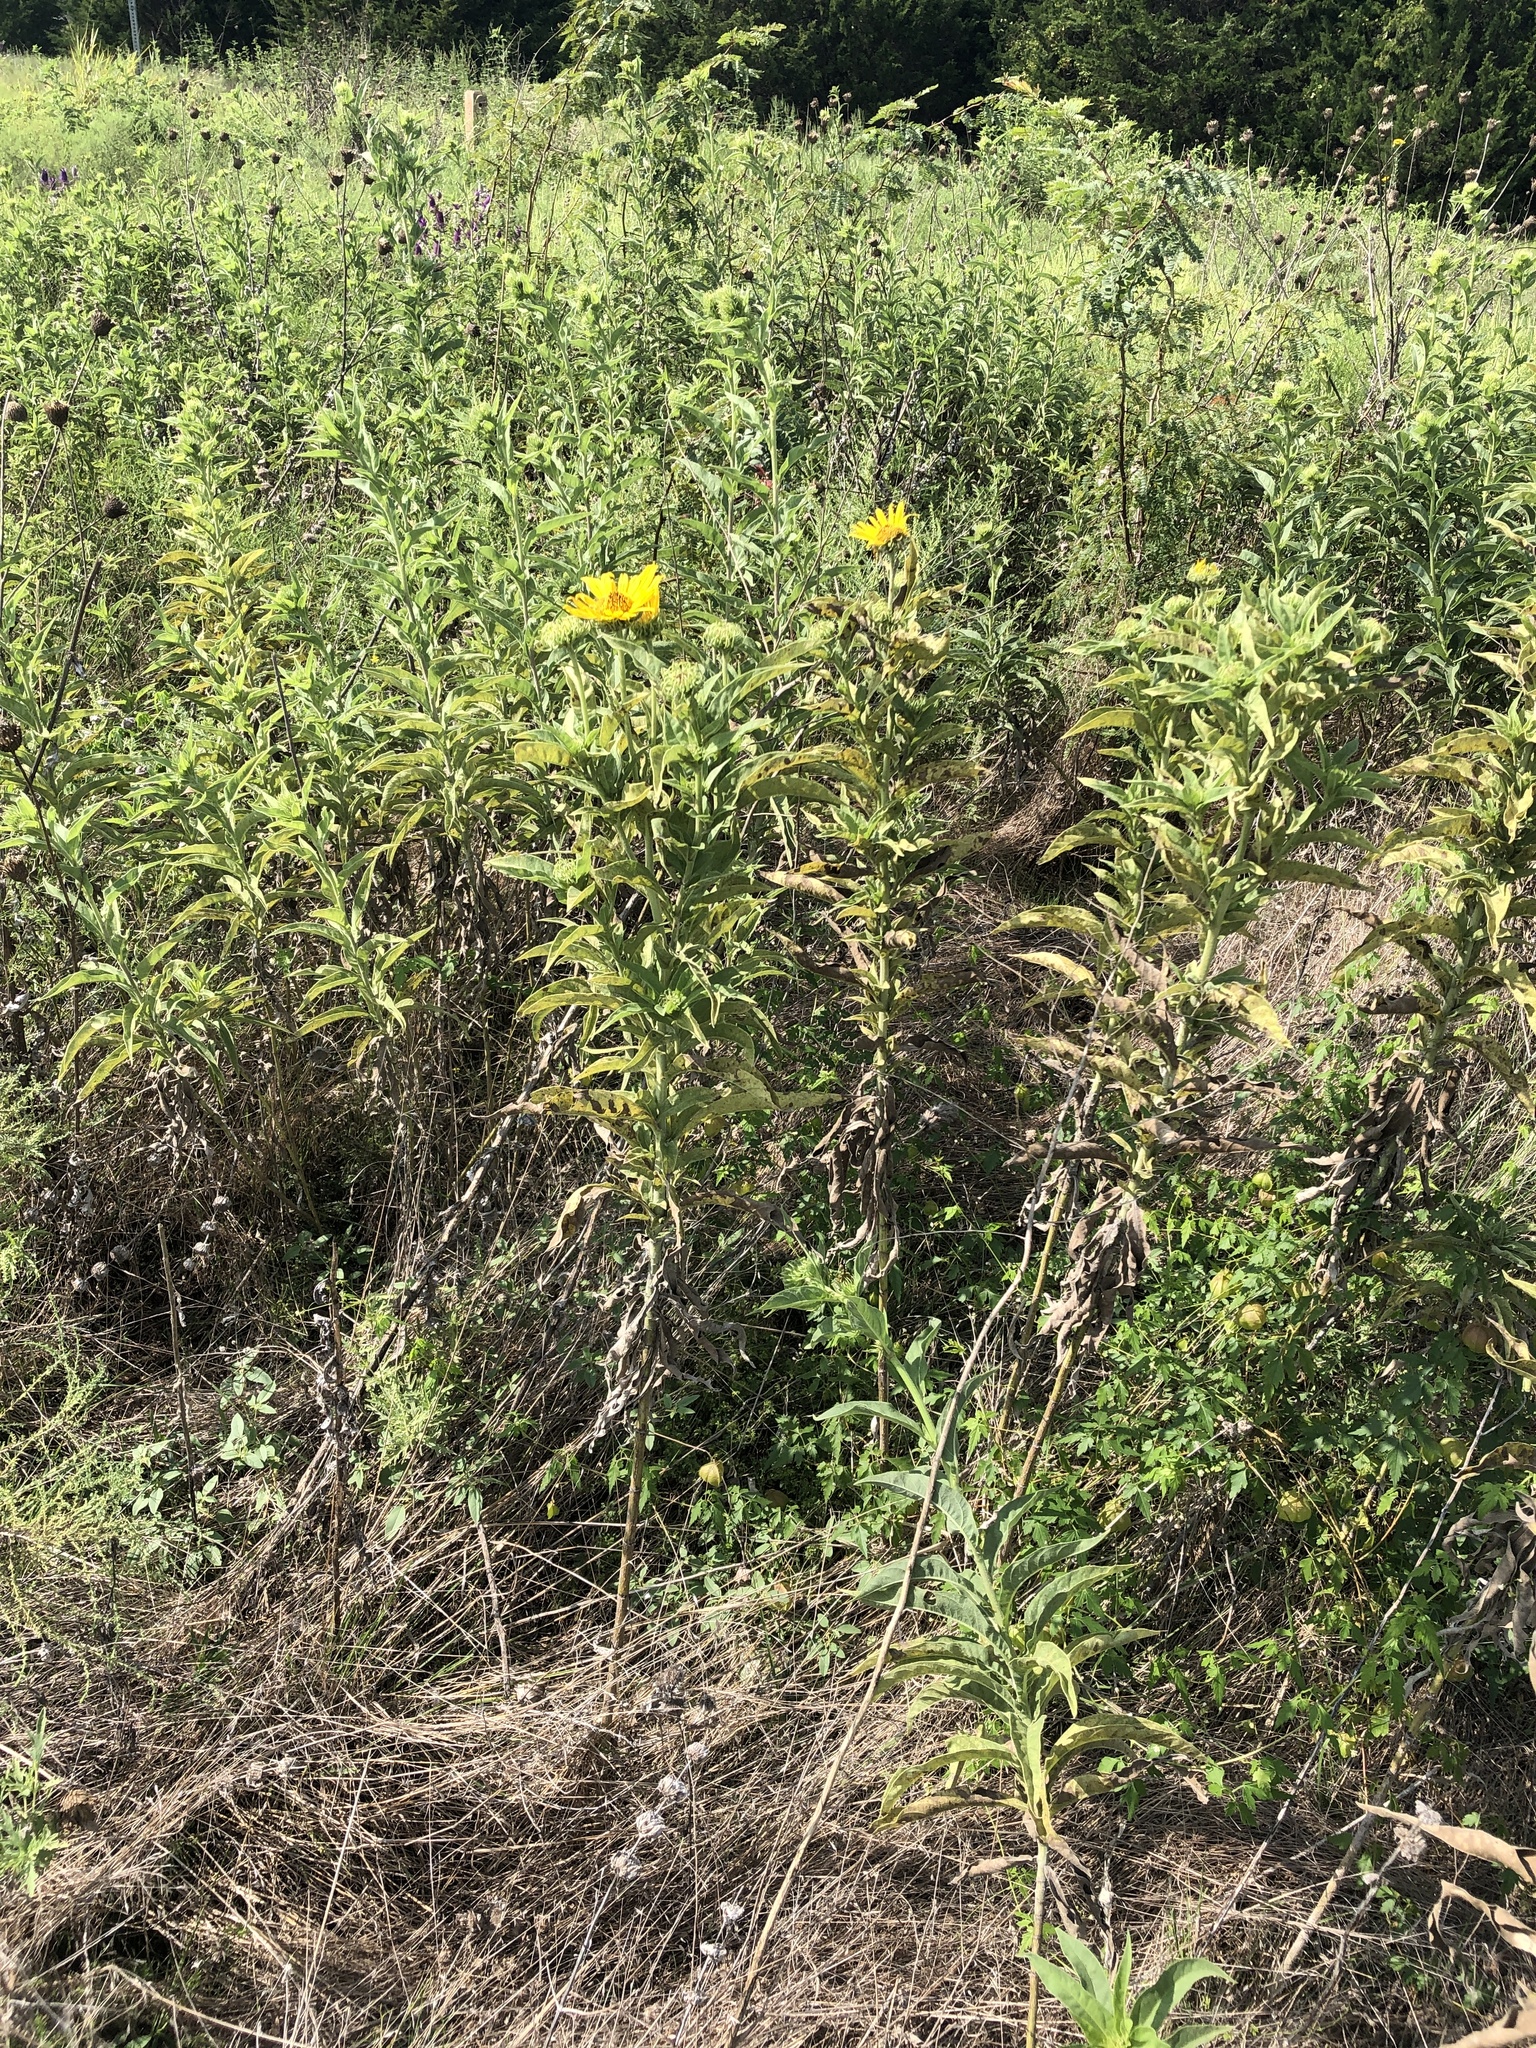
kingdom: Plantae
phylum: Tracheophyta
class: Magnoliopsida
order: Asterales
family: Asteraceae
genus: Helianthus
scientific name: Helianthus maximiliani
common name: Maximilian's sunflower
